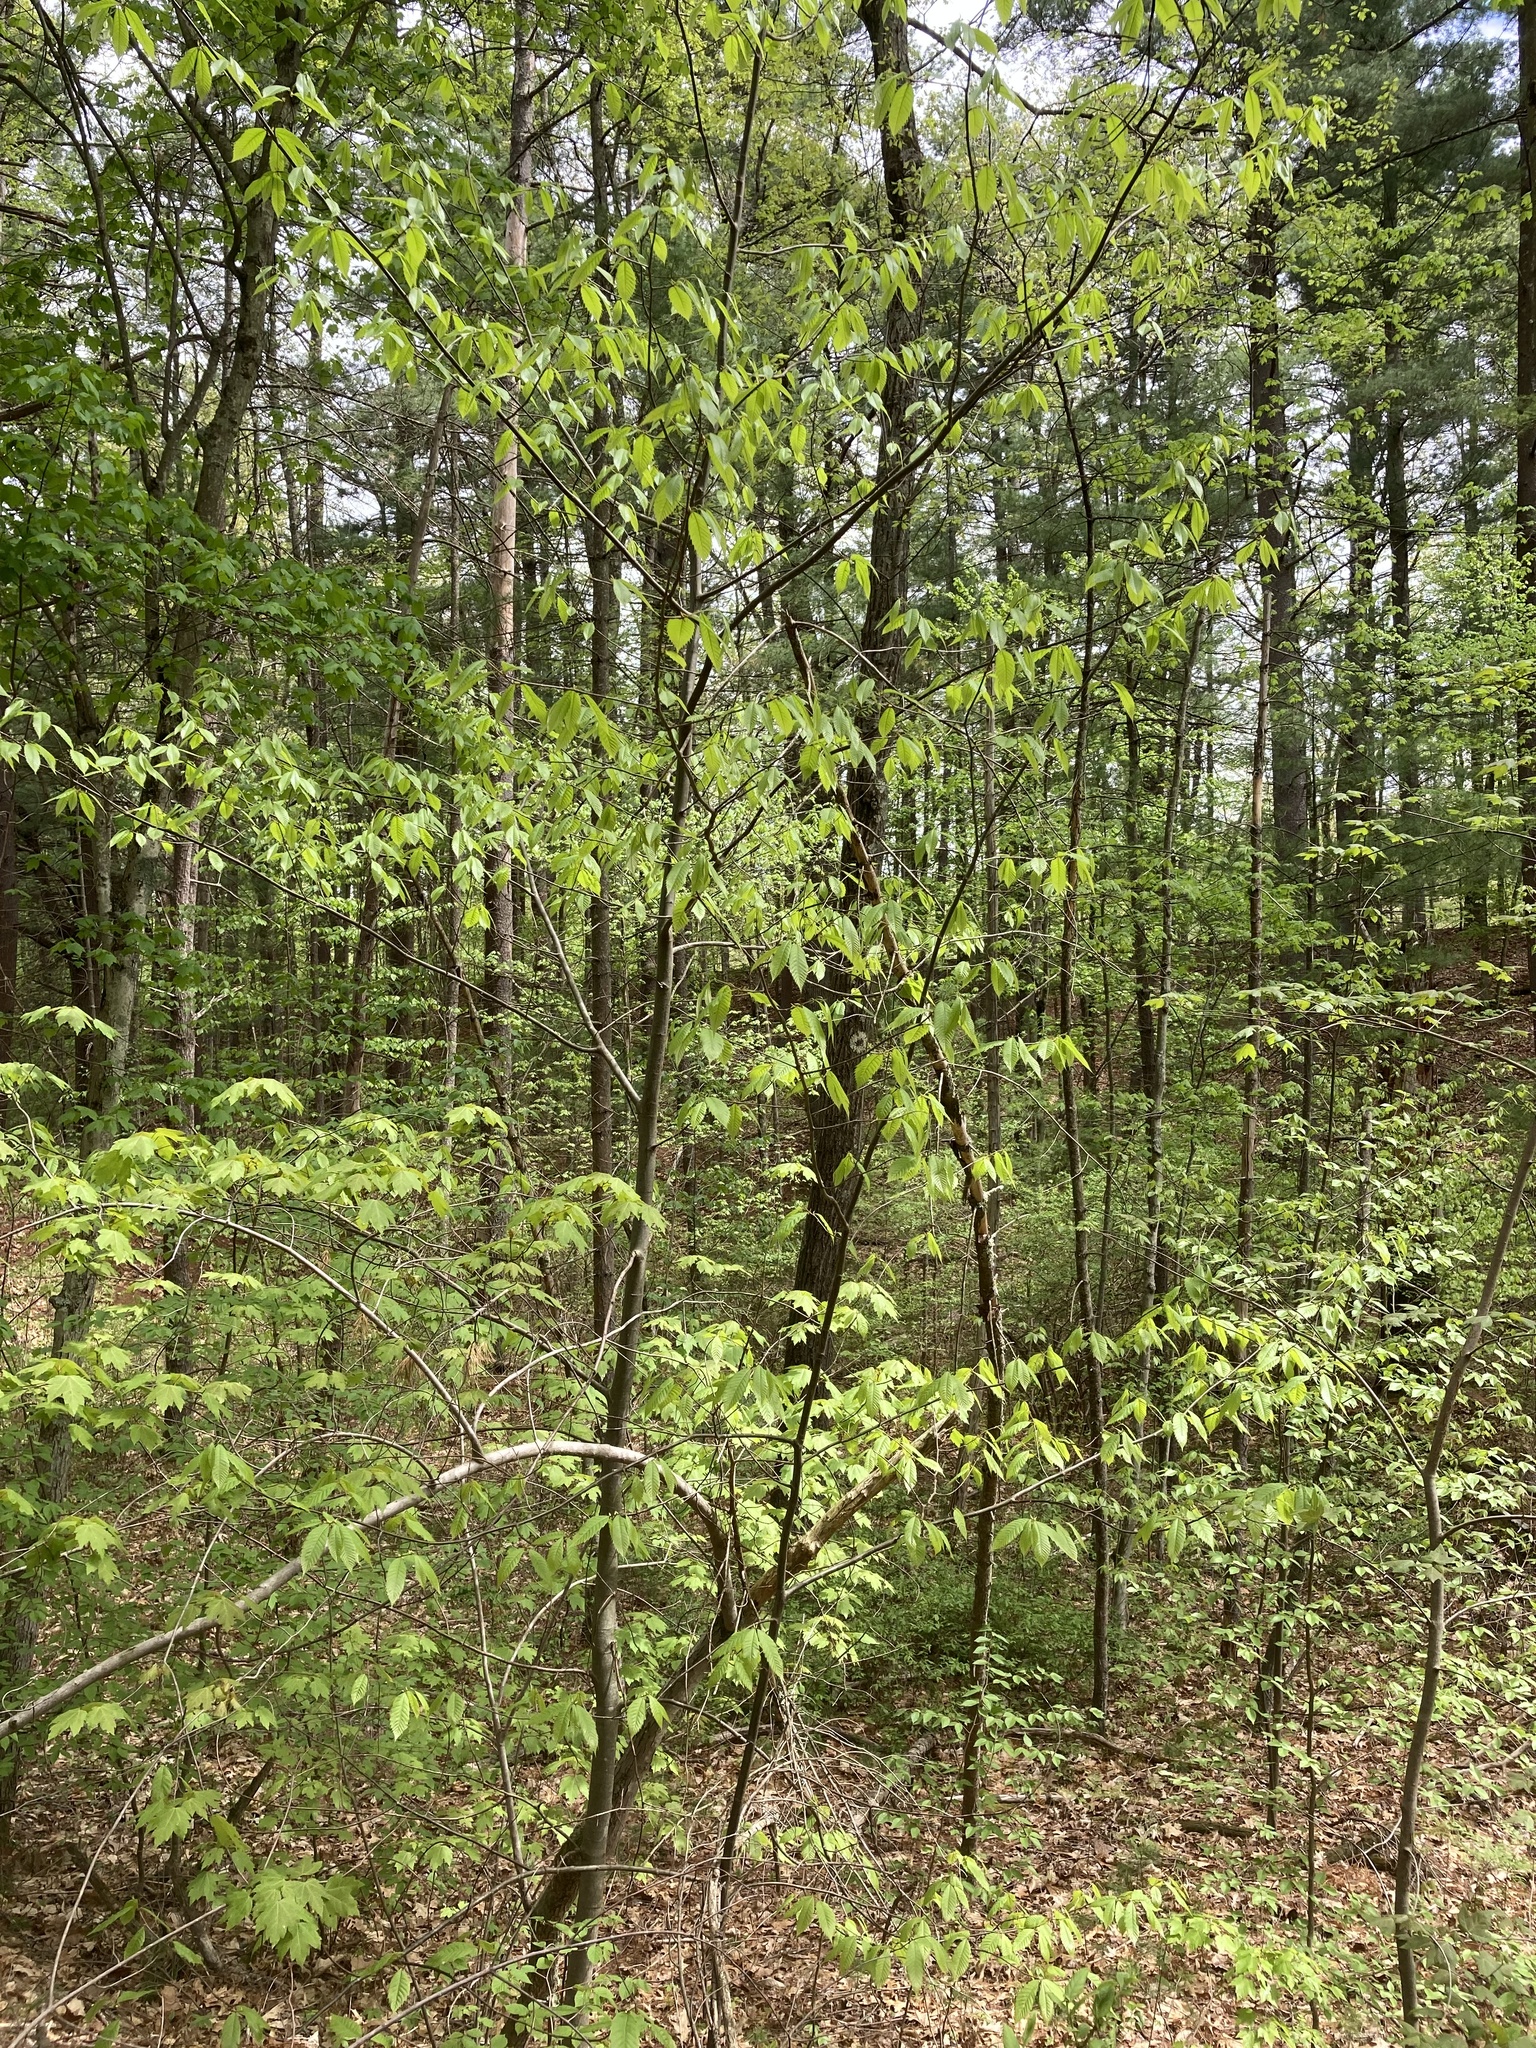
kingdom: Plantae
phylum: Tracheophyta
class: Magnoliopsida
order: Fagales
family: Fagaceae
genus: Castanea
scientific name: Castanea dentata
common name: American chestnut
